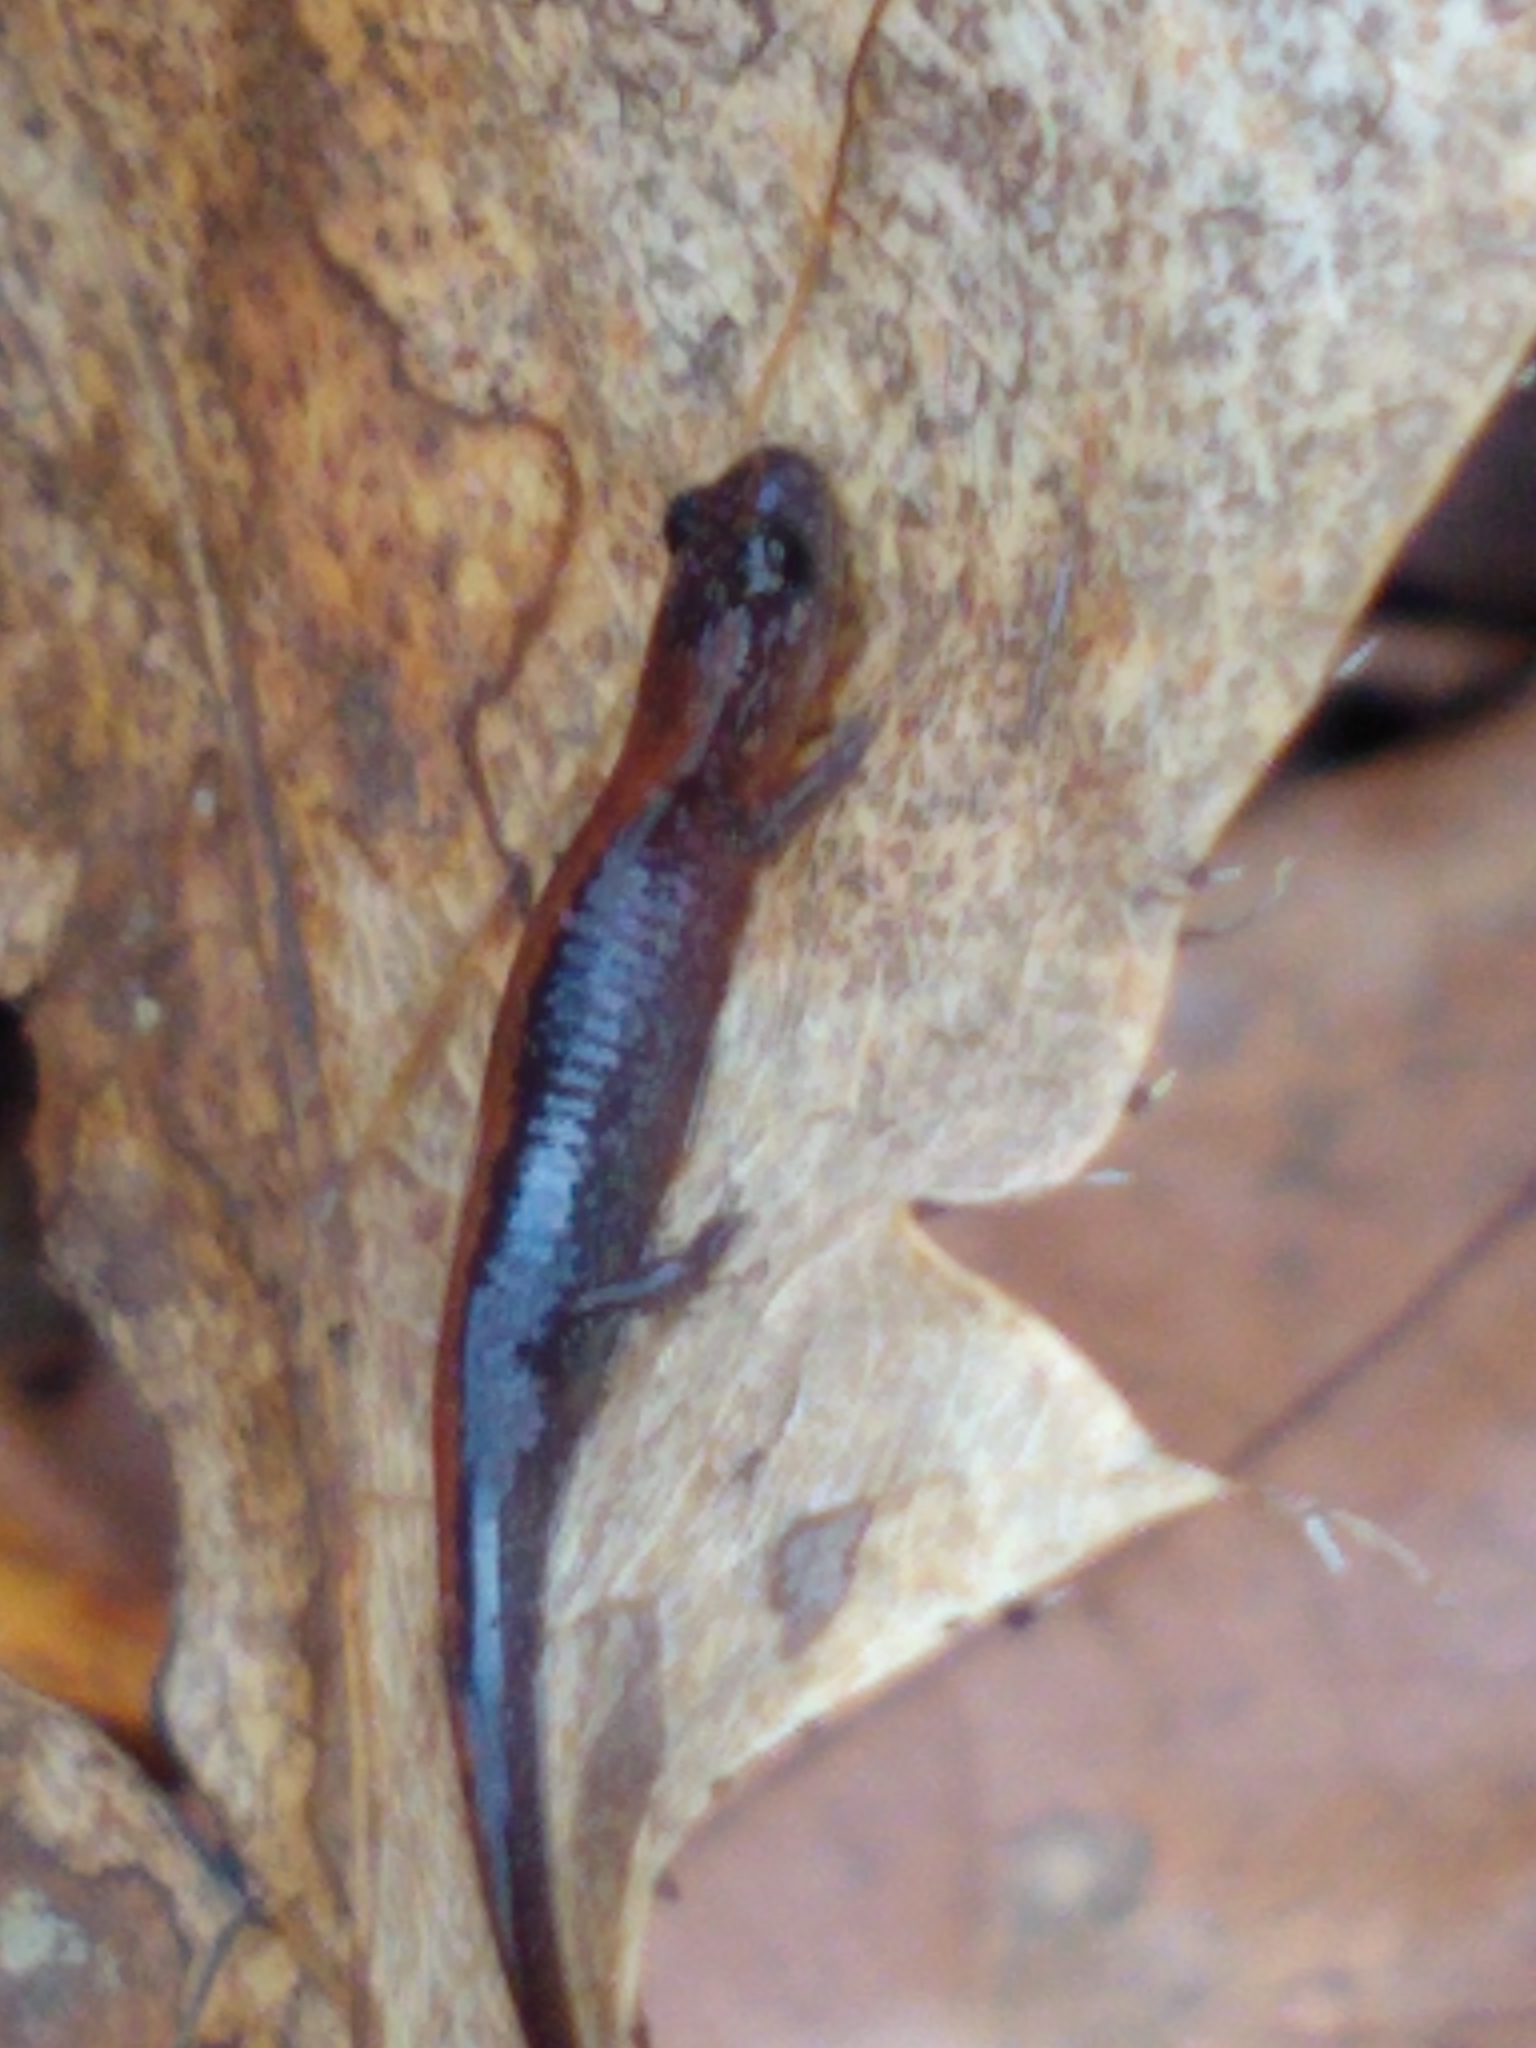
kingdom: Animalia
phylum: Chordata
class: Amphibia
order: Caudata
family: Plethodontidae
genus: Plethodon
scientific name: Plethodon cinereus
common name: Redback salamander
